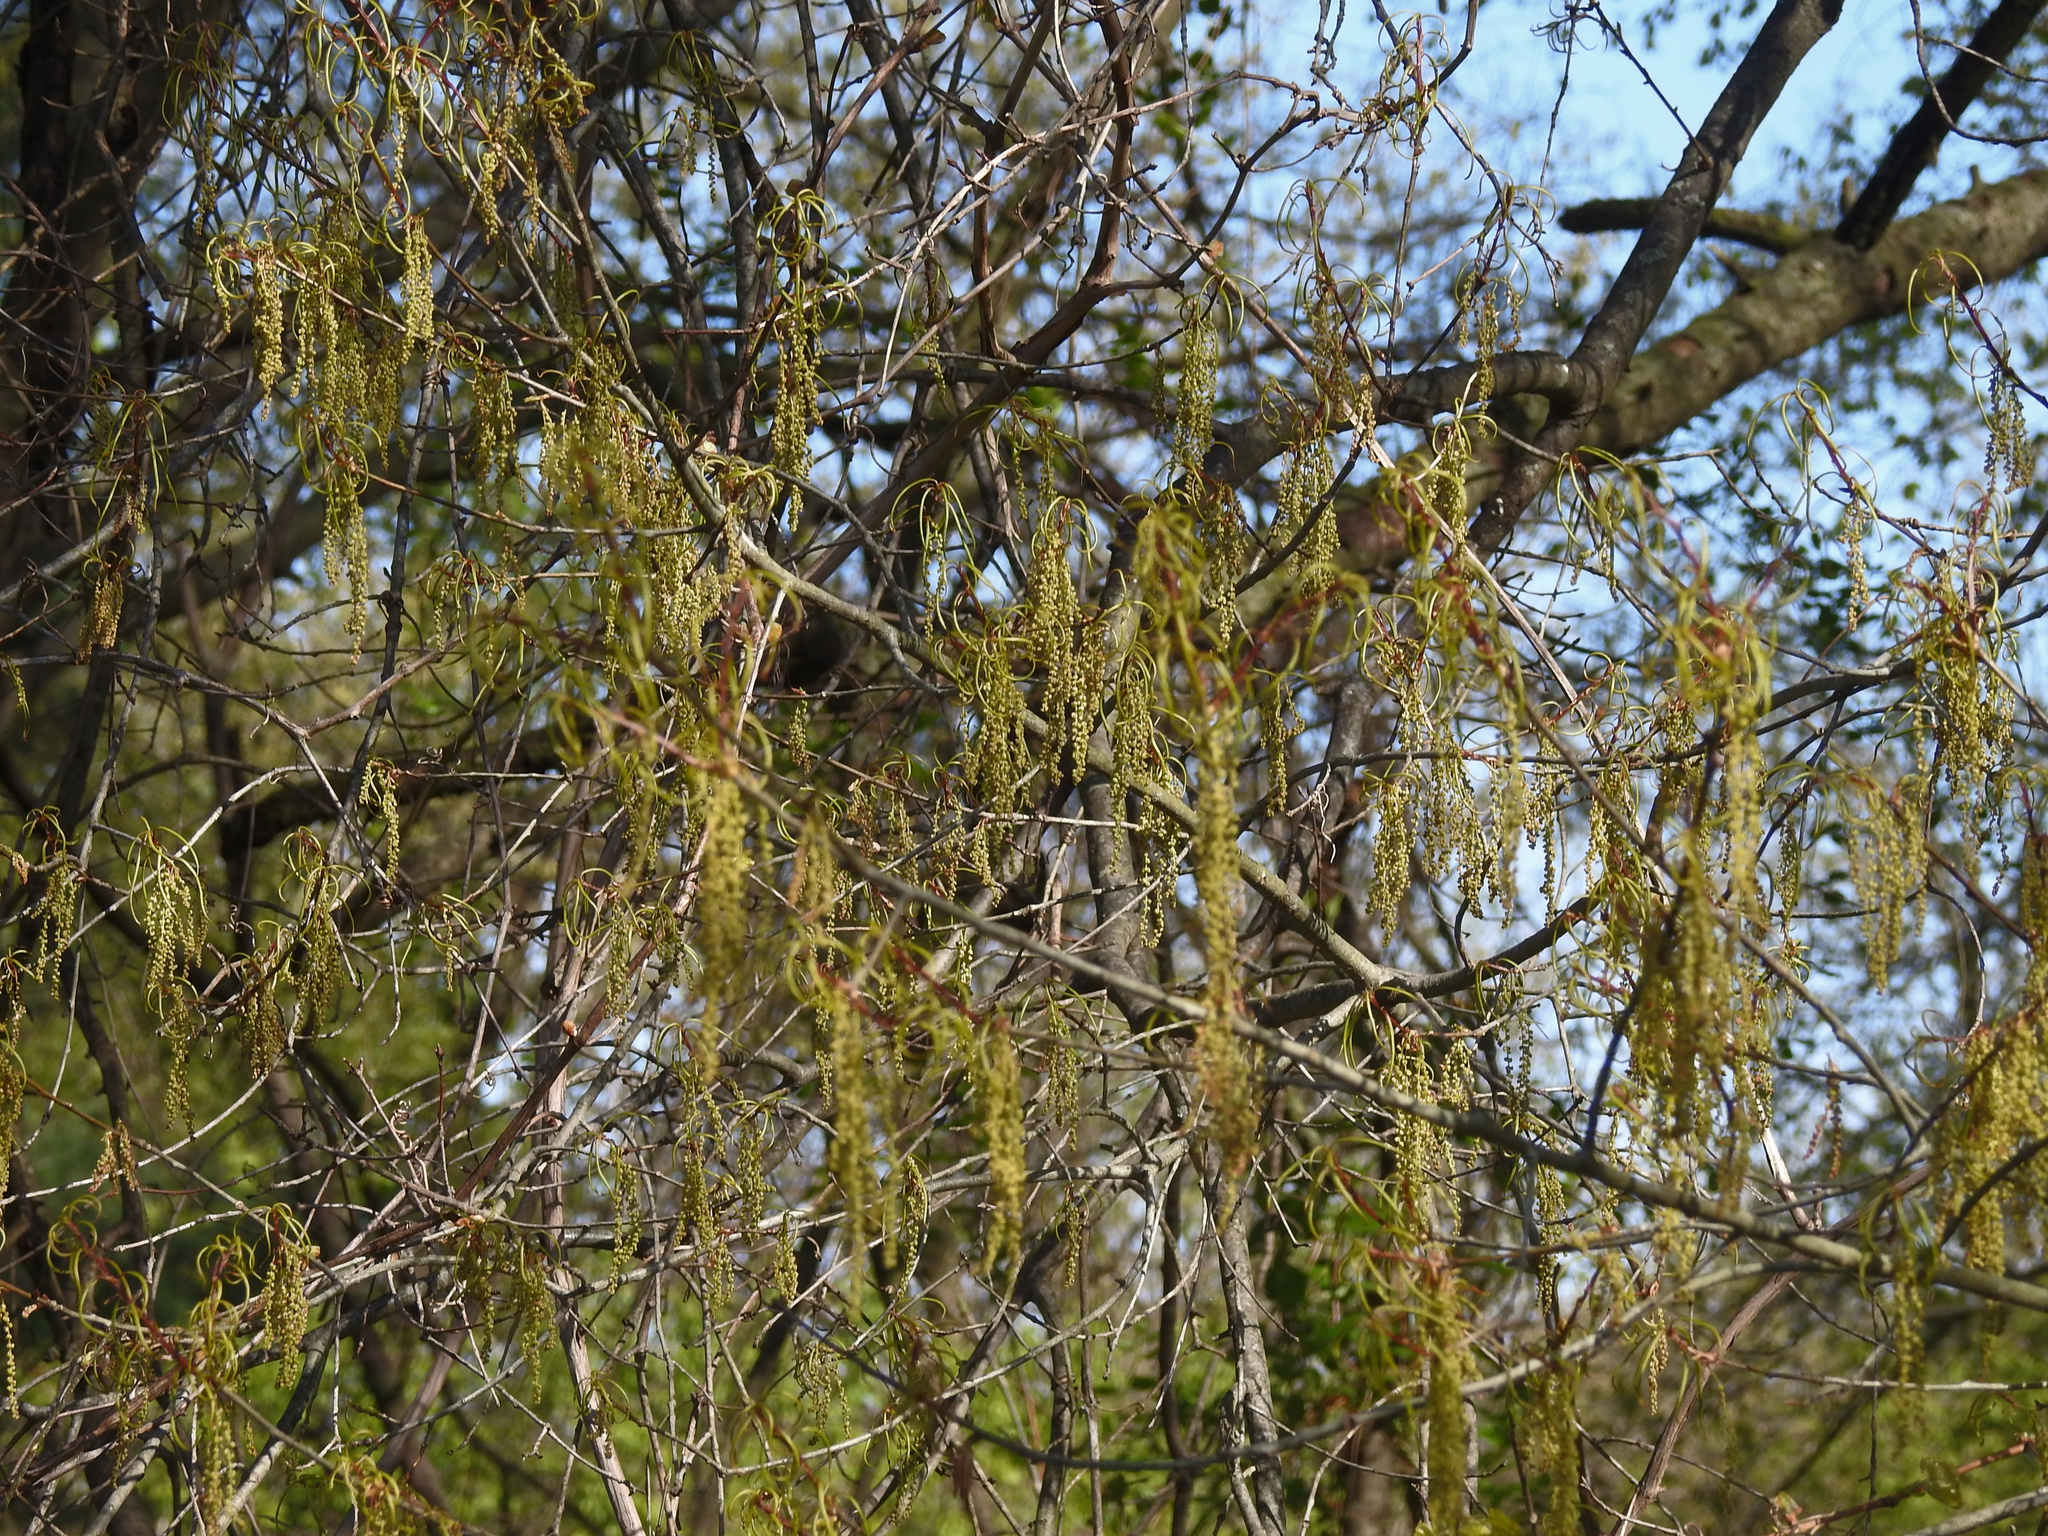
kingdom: Plantae
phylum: Tracheophyta
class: Magnoliopsida
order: Fagales
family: Fagaceae
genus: Quercus
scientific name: Quercus phellos
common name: Willow oak
